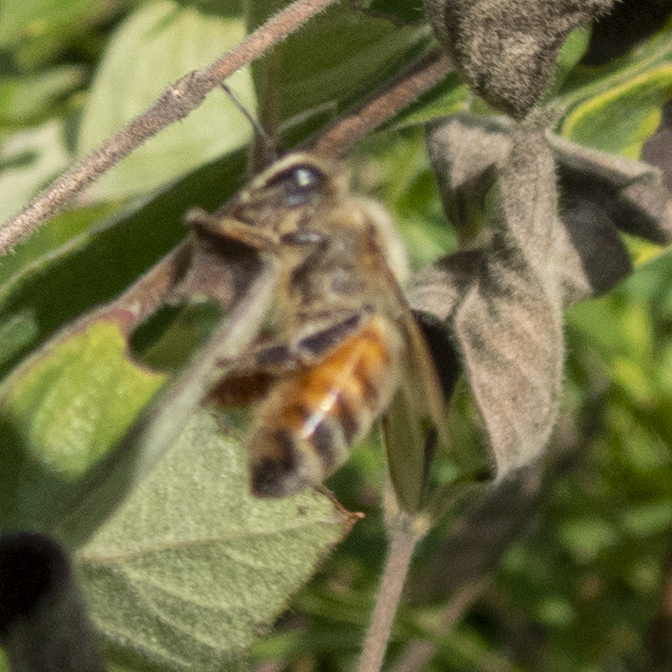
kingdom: Animalia
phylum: Arthropoda
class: Insecta
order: Hymenoptera
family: Apidae
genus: Apis
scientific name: Apis mellifera
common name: Honey bee
